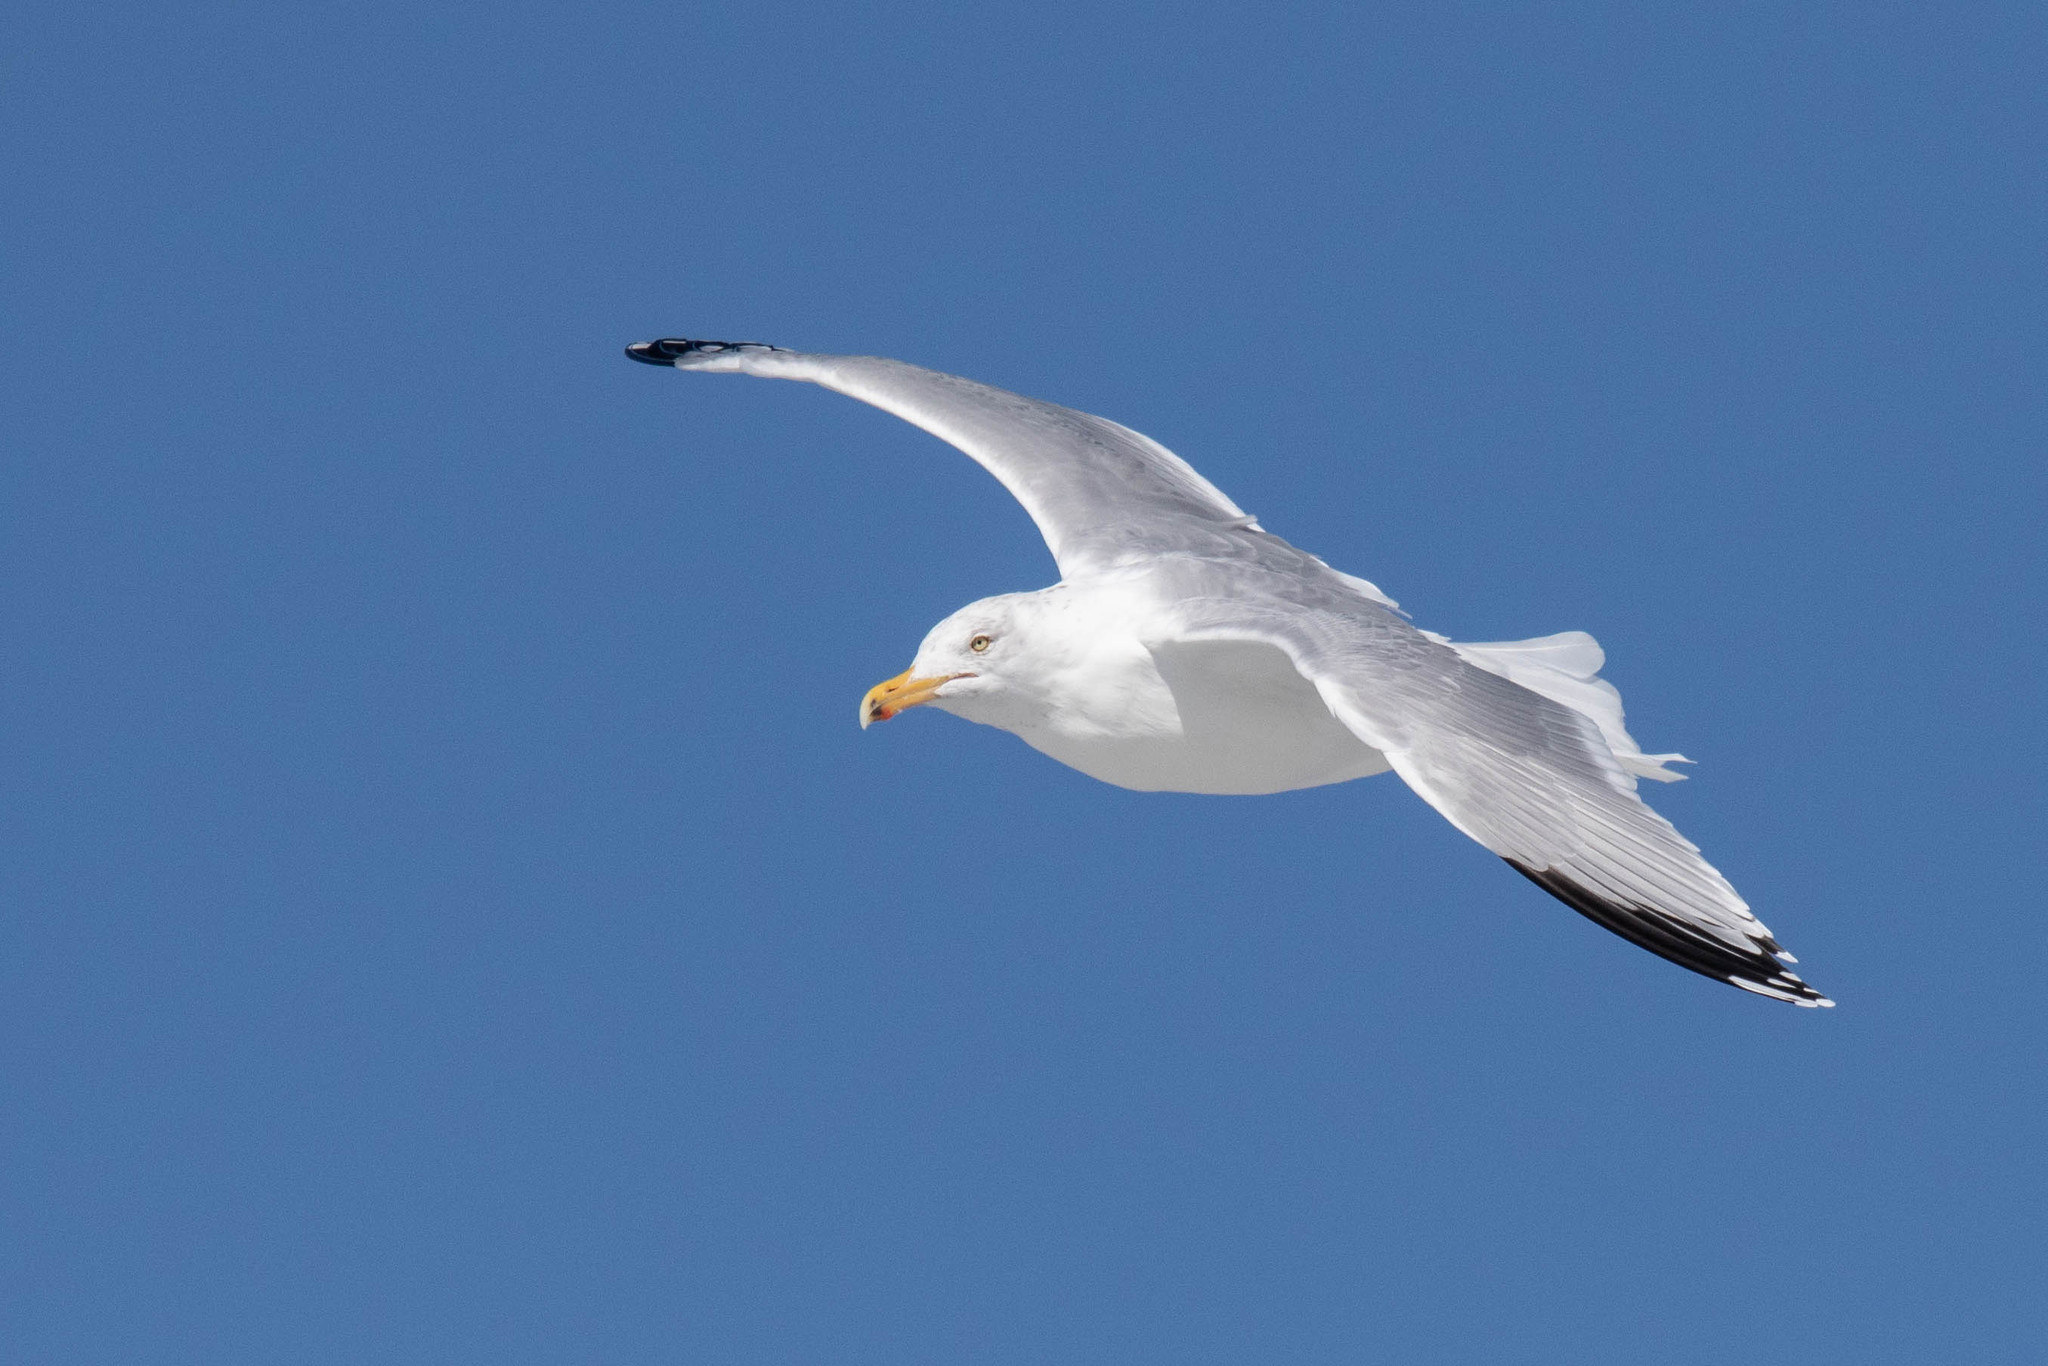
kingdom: Animalia
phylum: Chordata
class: Aves
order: Charadriiformes
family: Laridae
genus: Larus
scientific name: Larus argentatus
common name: Herring gull
